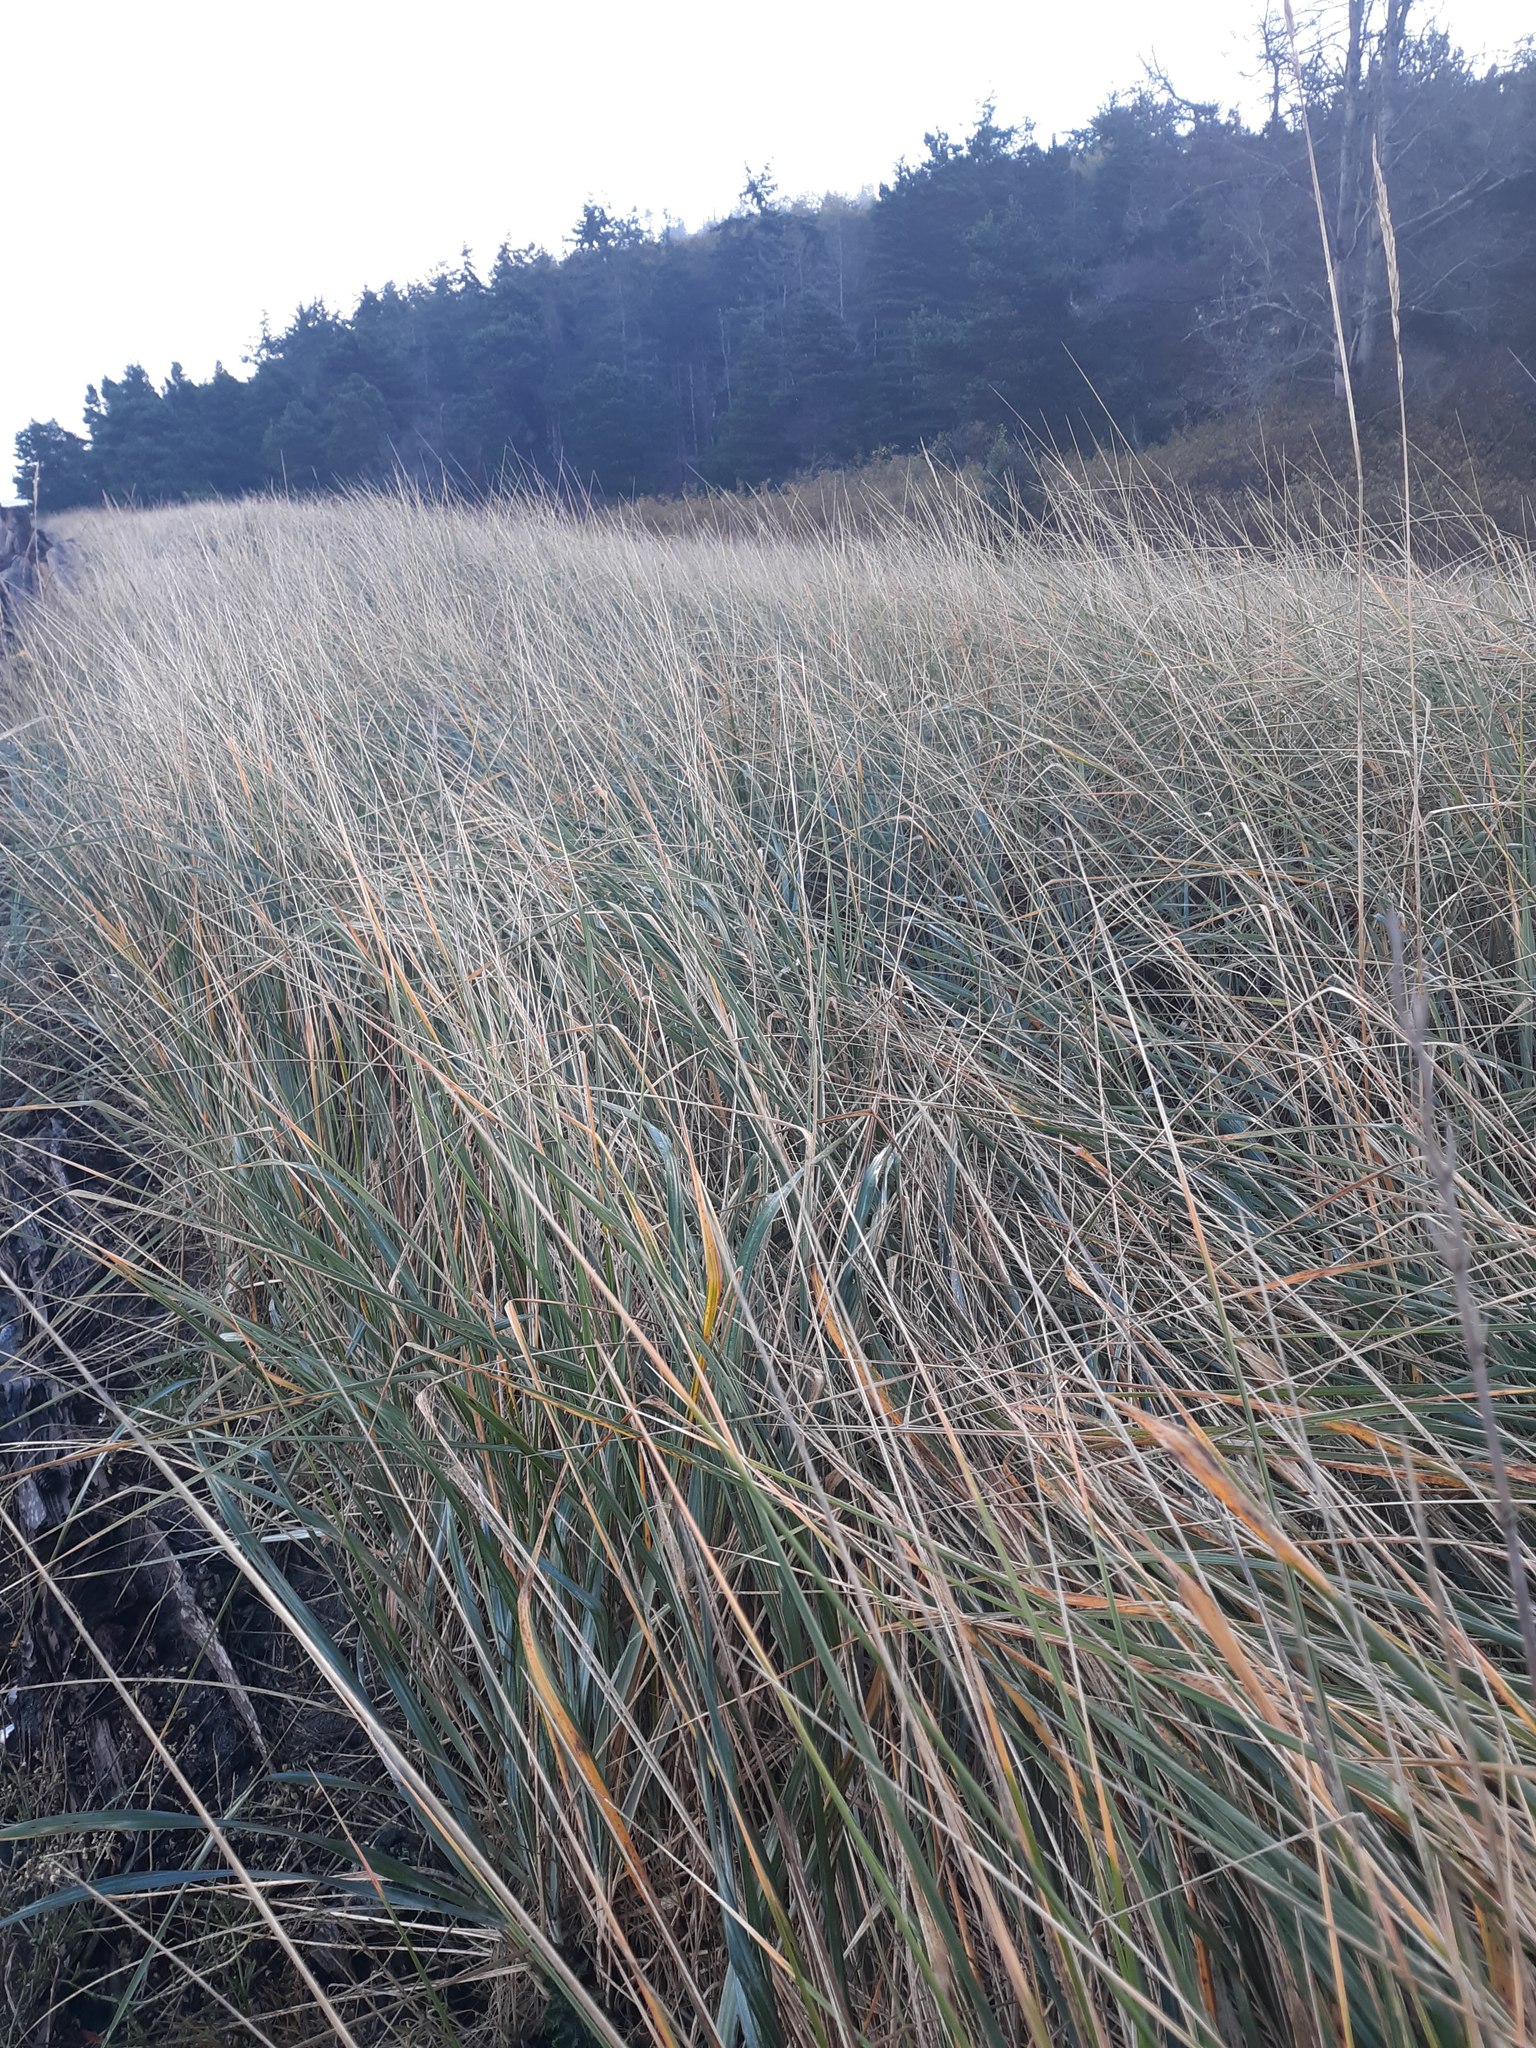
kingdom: Plantae
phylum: Tracheophyta
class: Liliopsida
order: Poales
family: Poaceae
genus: Leymus
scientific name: Leymus mollis
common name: American dune grass
